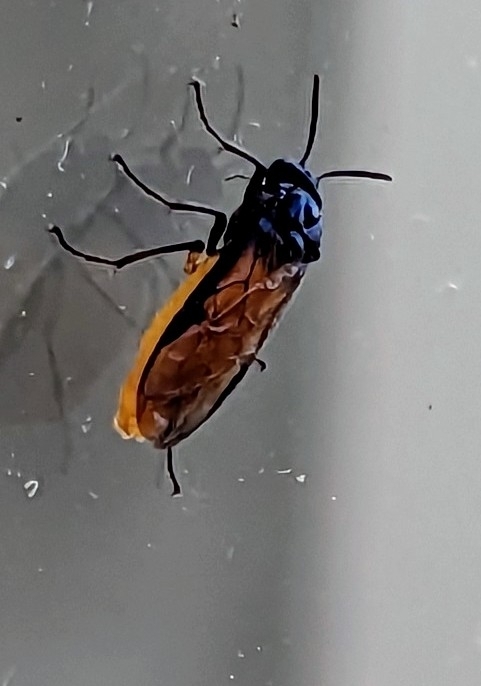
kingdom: Animalia
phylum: Arthropoda
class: Insecta
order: Hymenoptera
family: Argidae
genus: Arge
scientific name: Arge pagana
